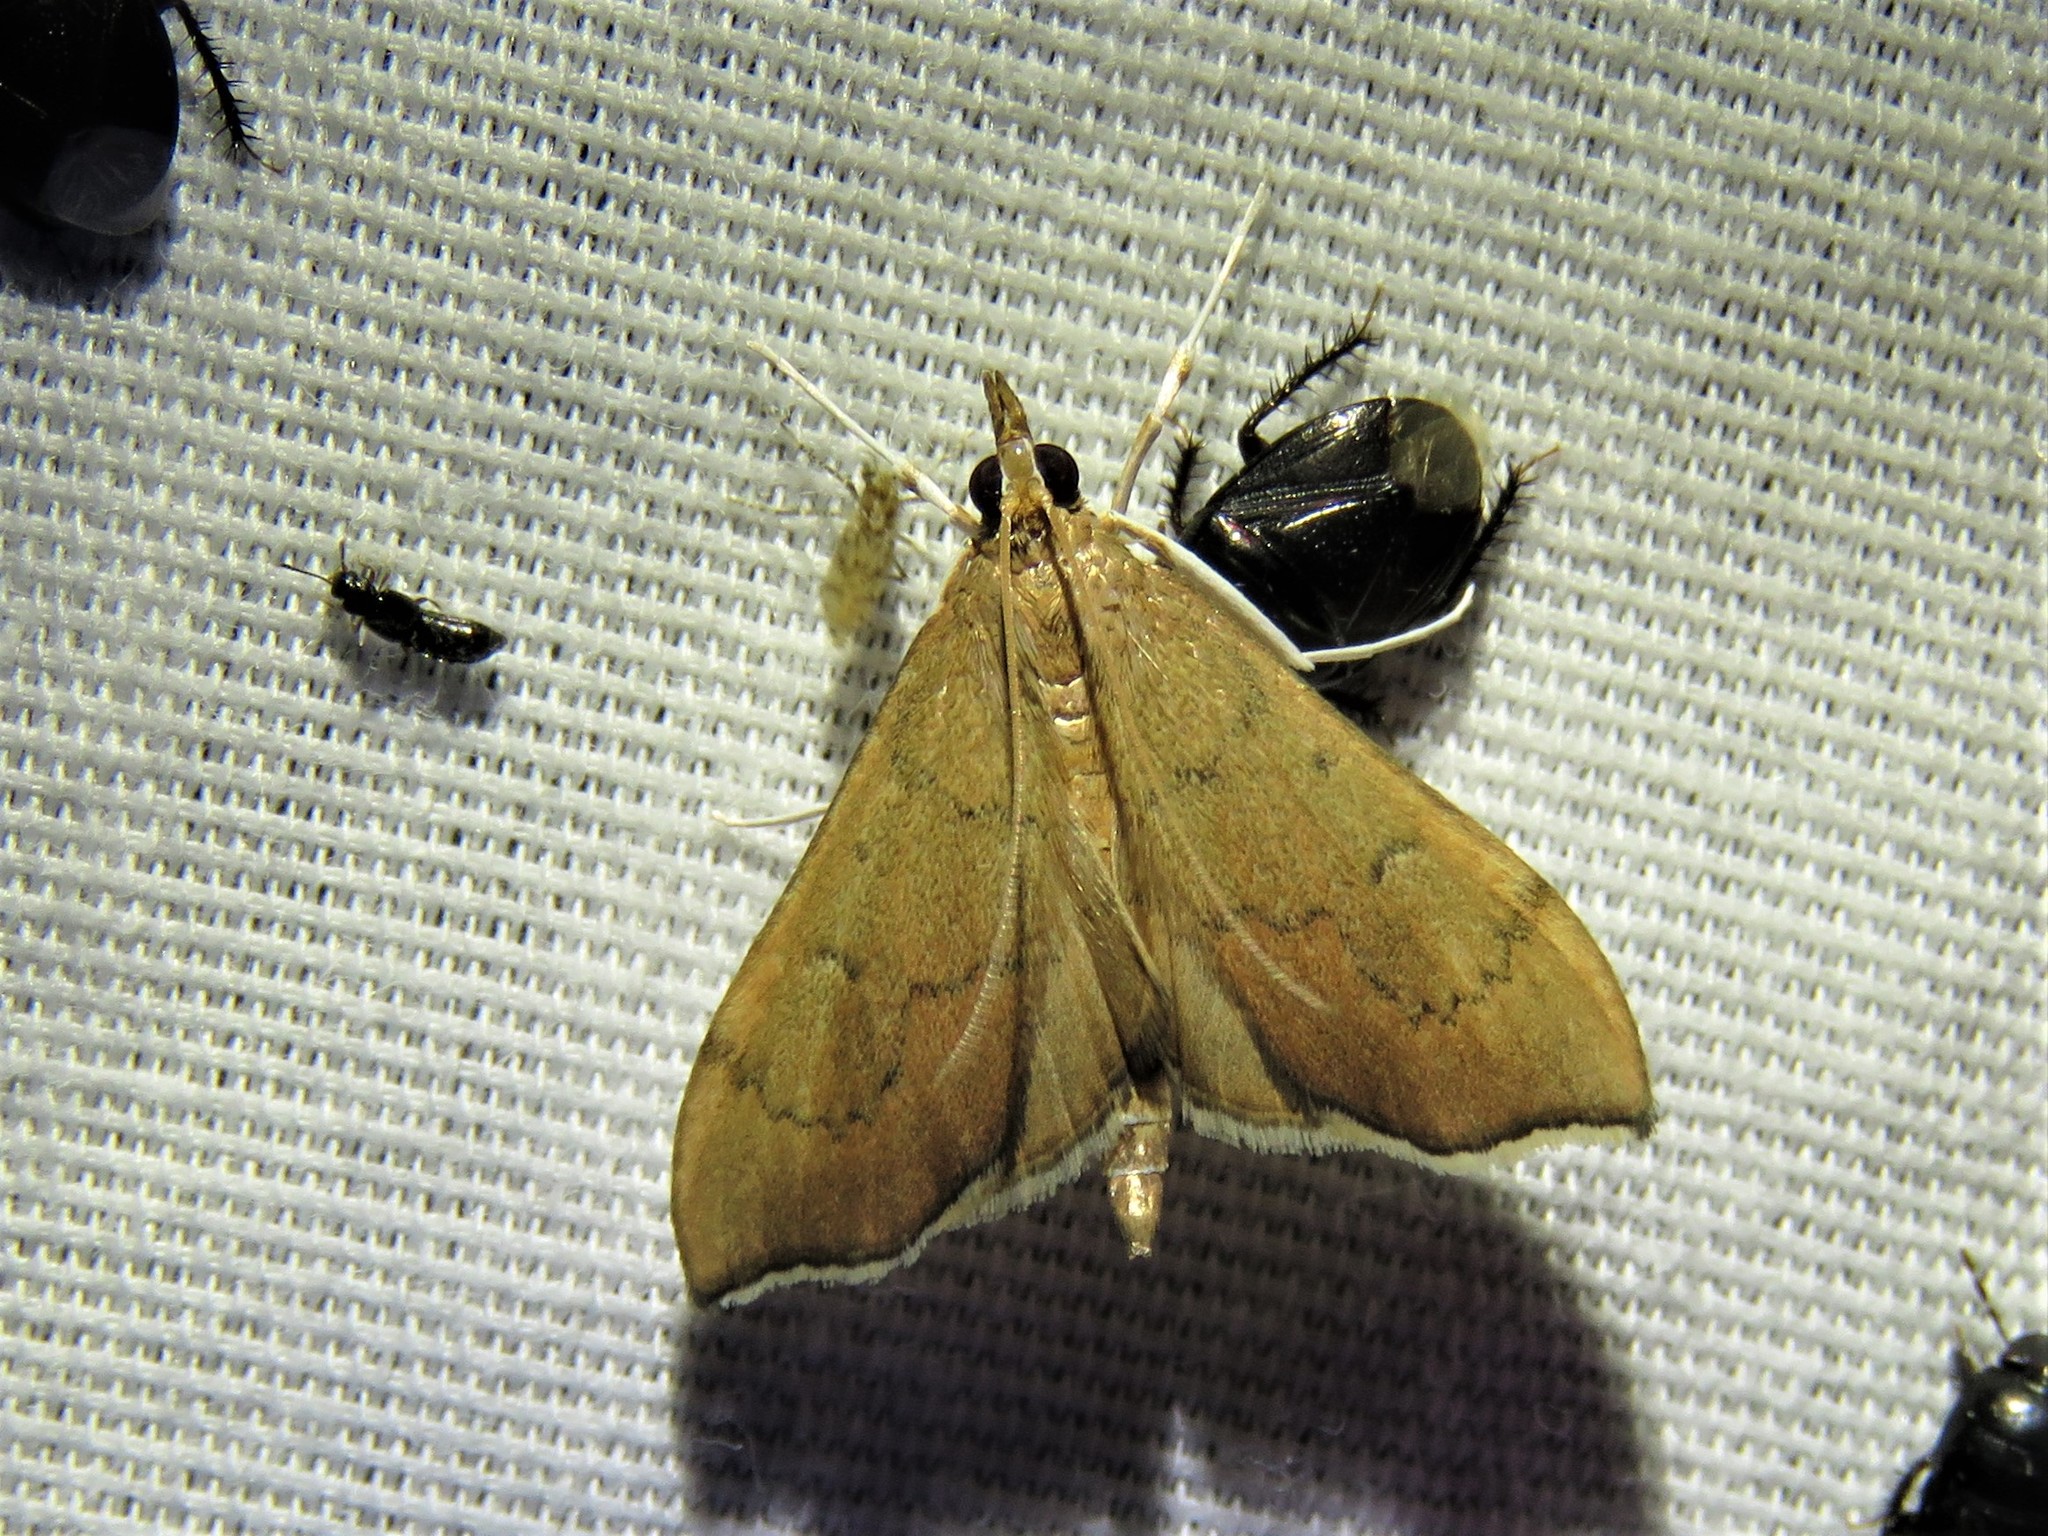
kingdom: Animalia
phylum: Arthropoda
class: Insecta
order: Lepidoptera
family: Crambidae
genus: Sericoplaga
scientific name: Sericoplaga externalis
